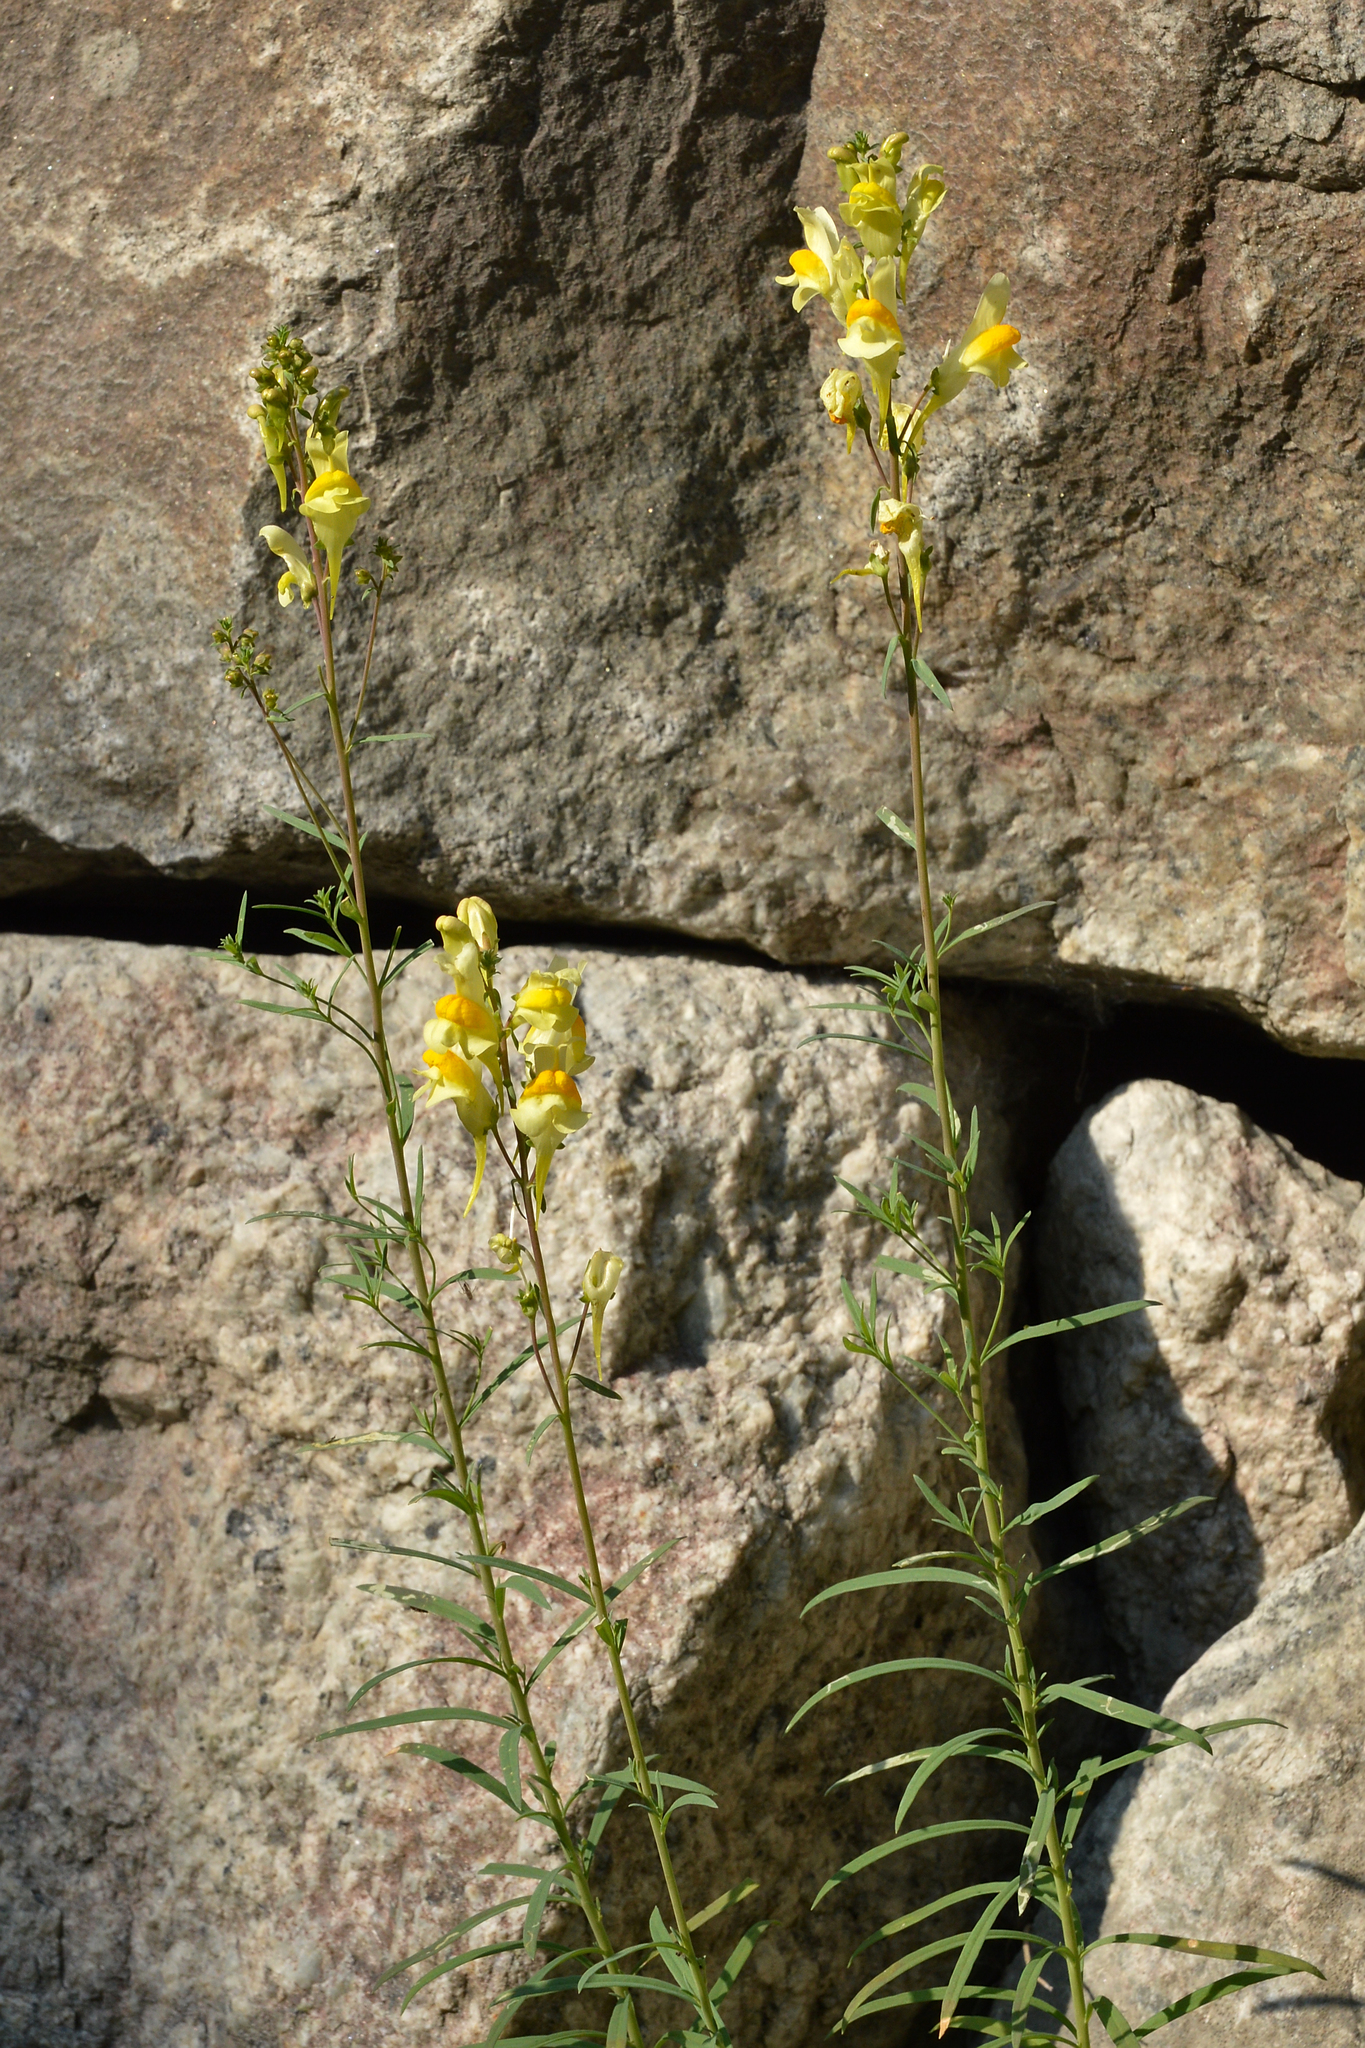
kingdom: Plantae
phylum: Tracheophyta
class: Magnoliopsida
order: Lamiales
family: Plantaginaceae
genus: Linaria
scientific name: Linaria vulgaris
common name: Butter and eggs
